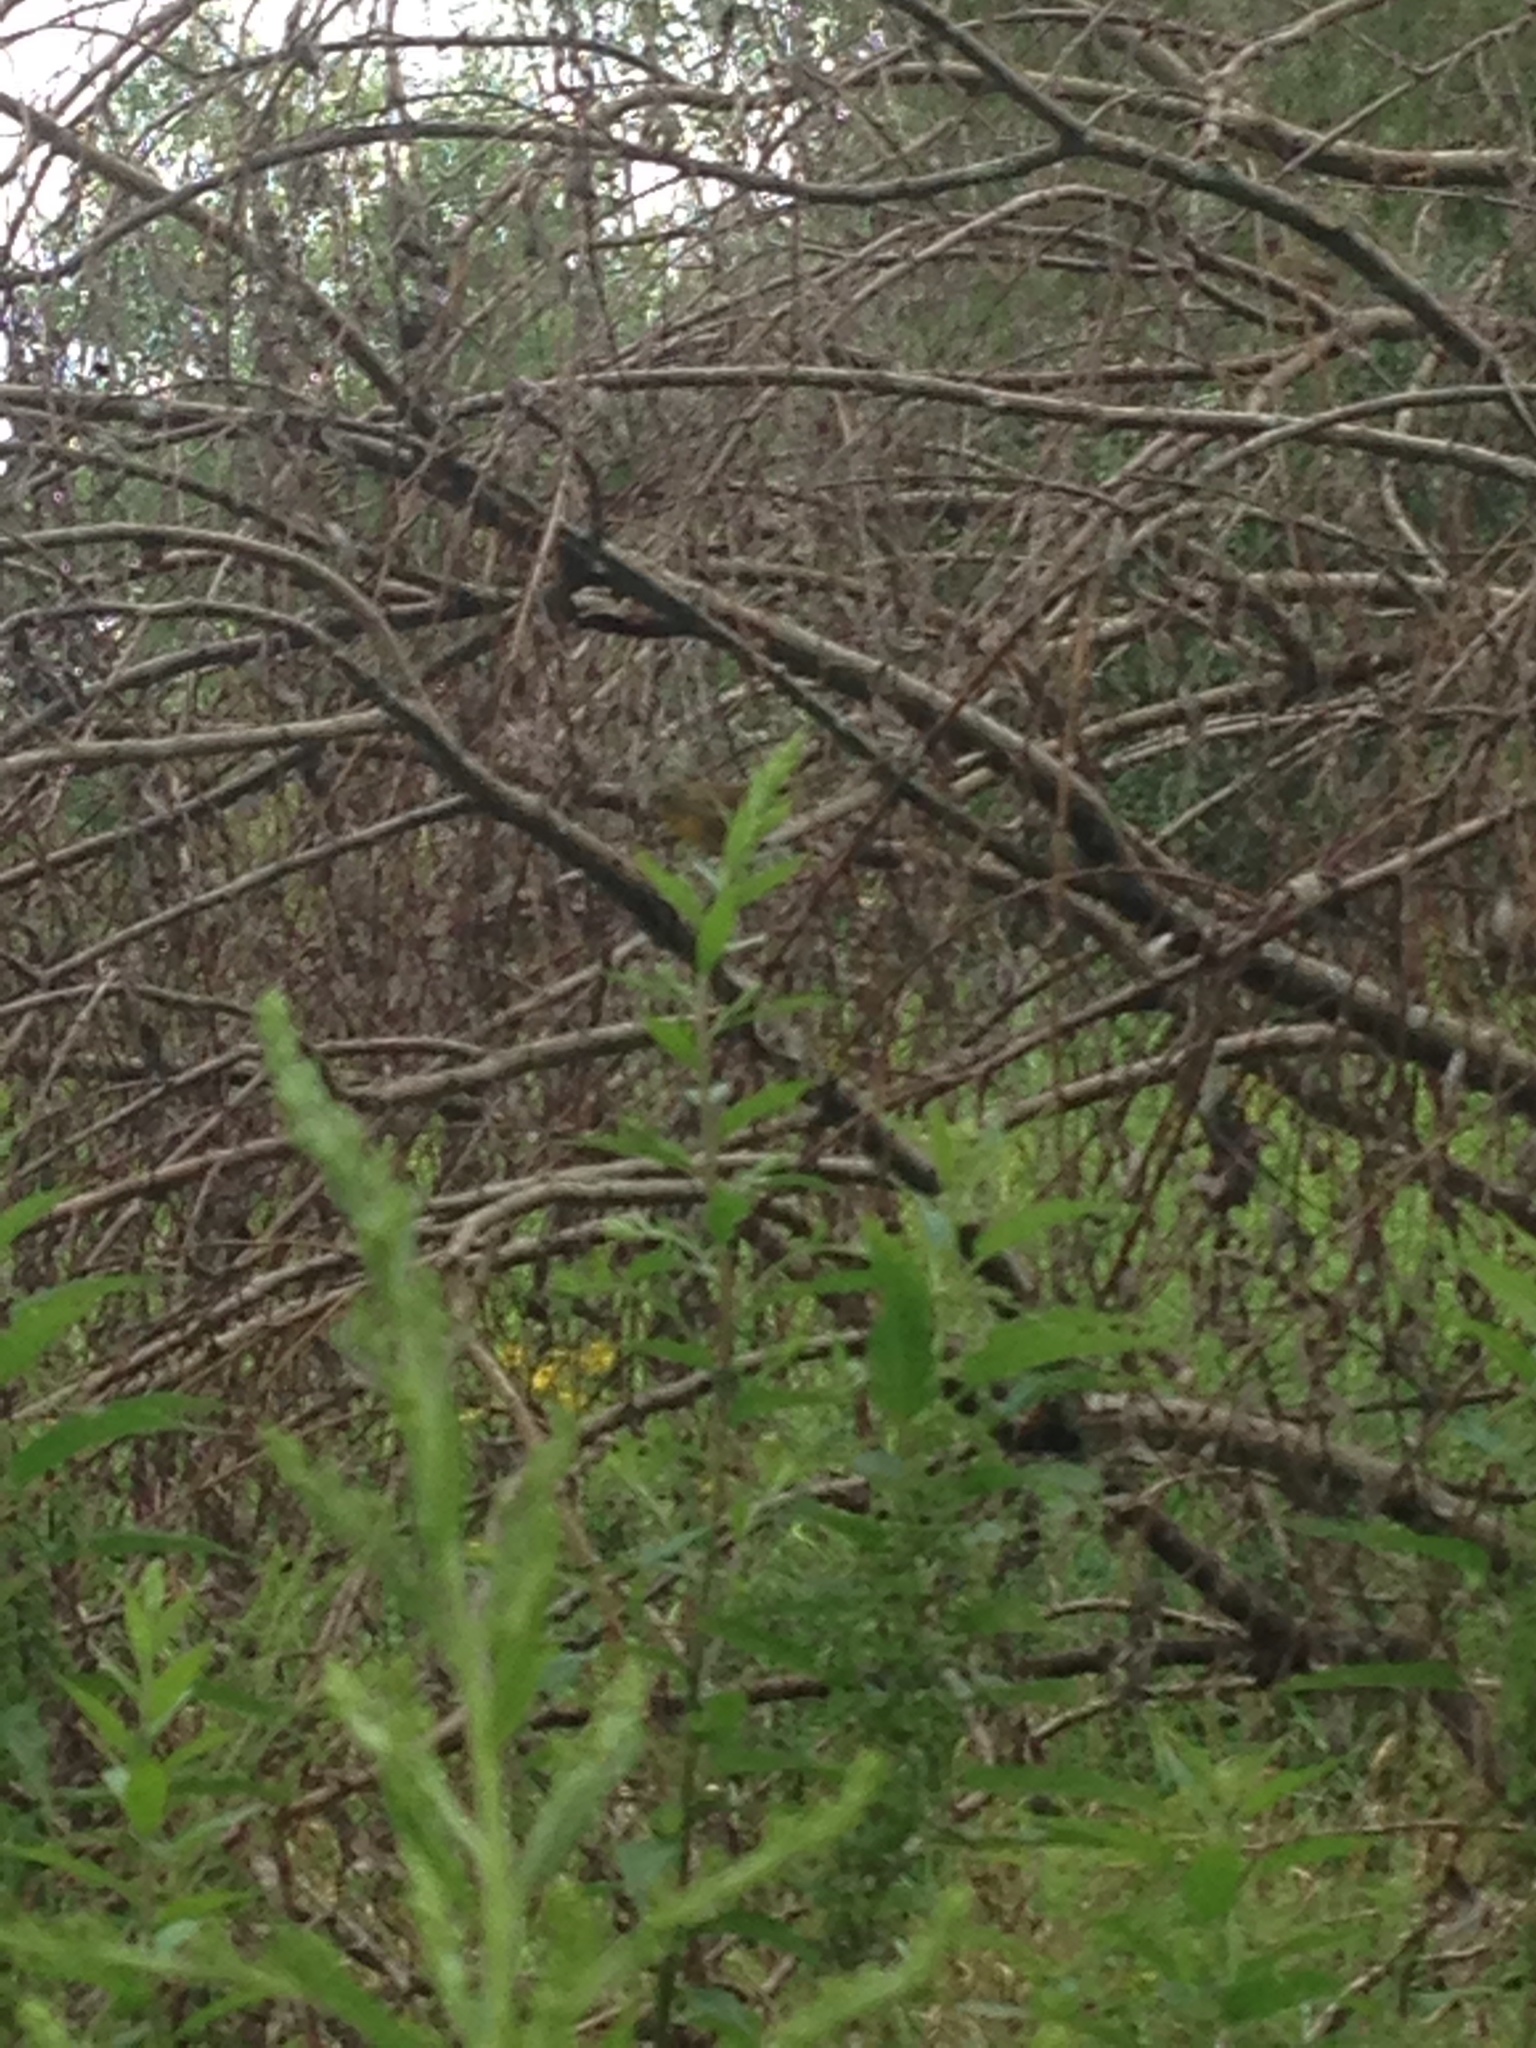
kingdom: Animalia
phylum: Chordata
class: Aves
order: Passeriformes
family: Parulidae
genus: Geothlypis
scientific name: Geothlypis trichas
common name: Common yellowthroat
